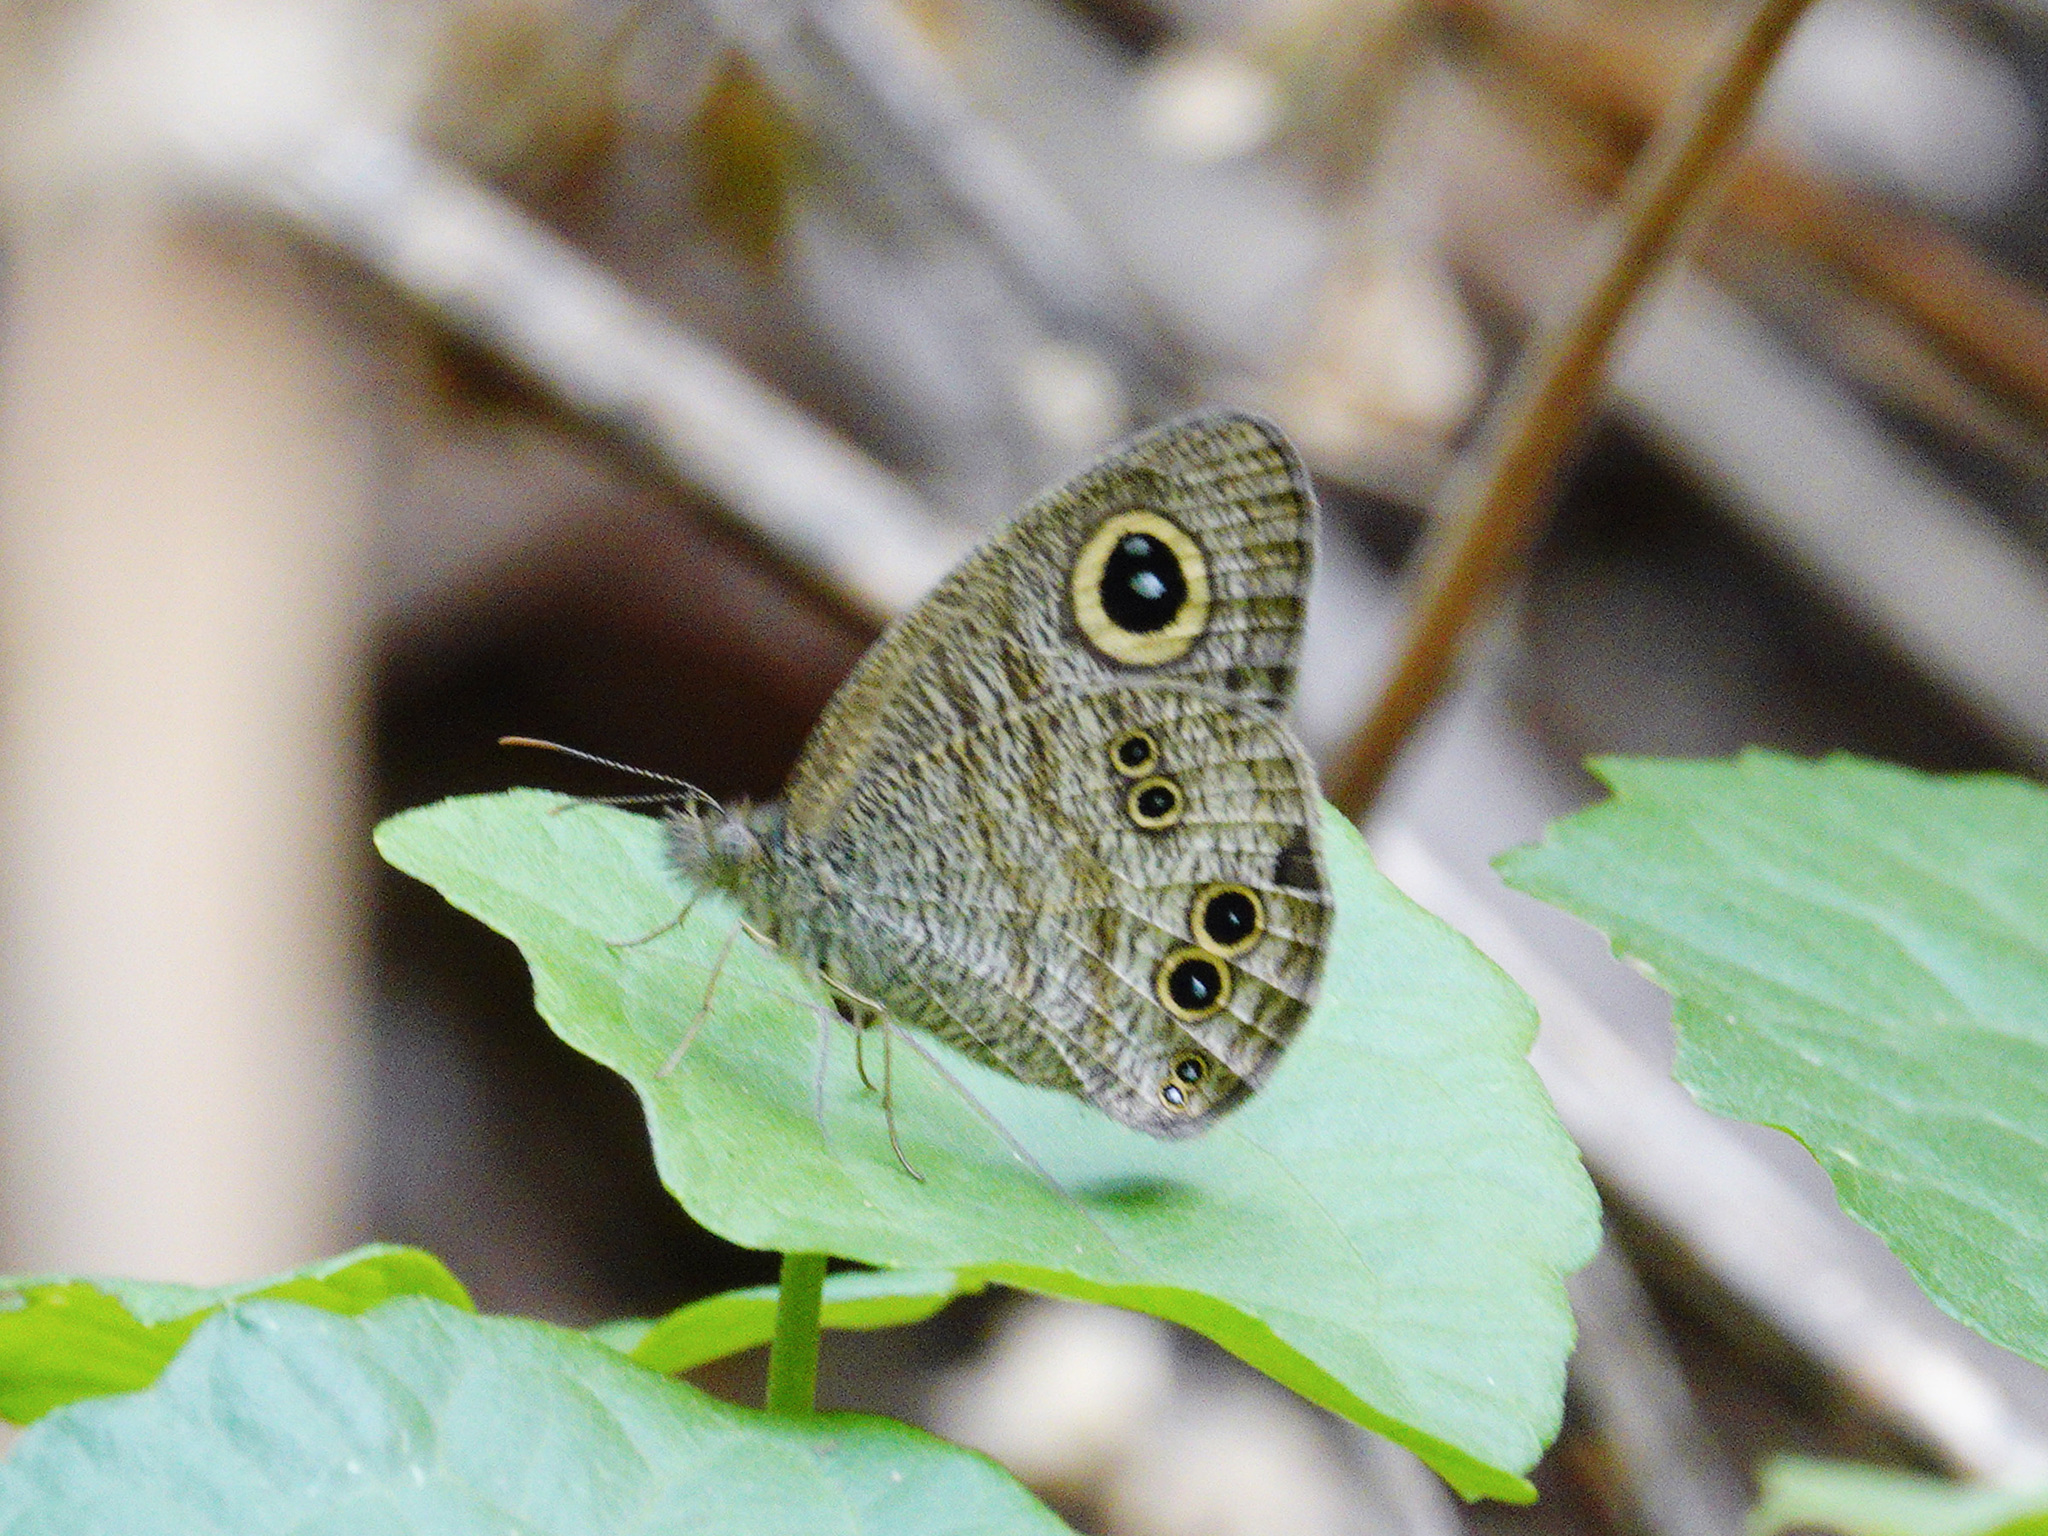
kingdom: Animalia
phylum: Arthropoda
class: Insecta
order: Lepidoptera
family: Nymphalidae
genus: Ypthima
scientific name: Ypthima baldus
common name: Common five-ring
